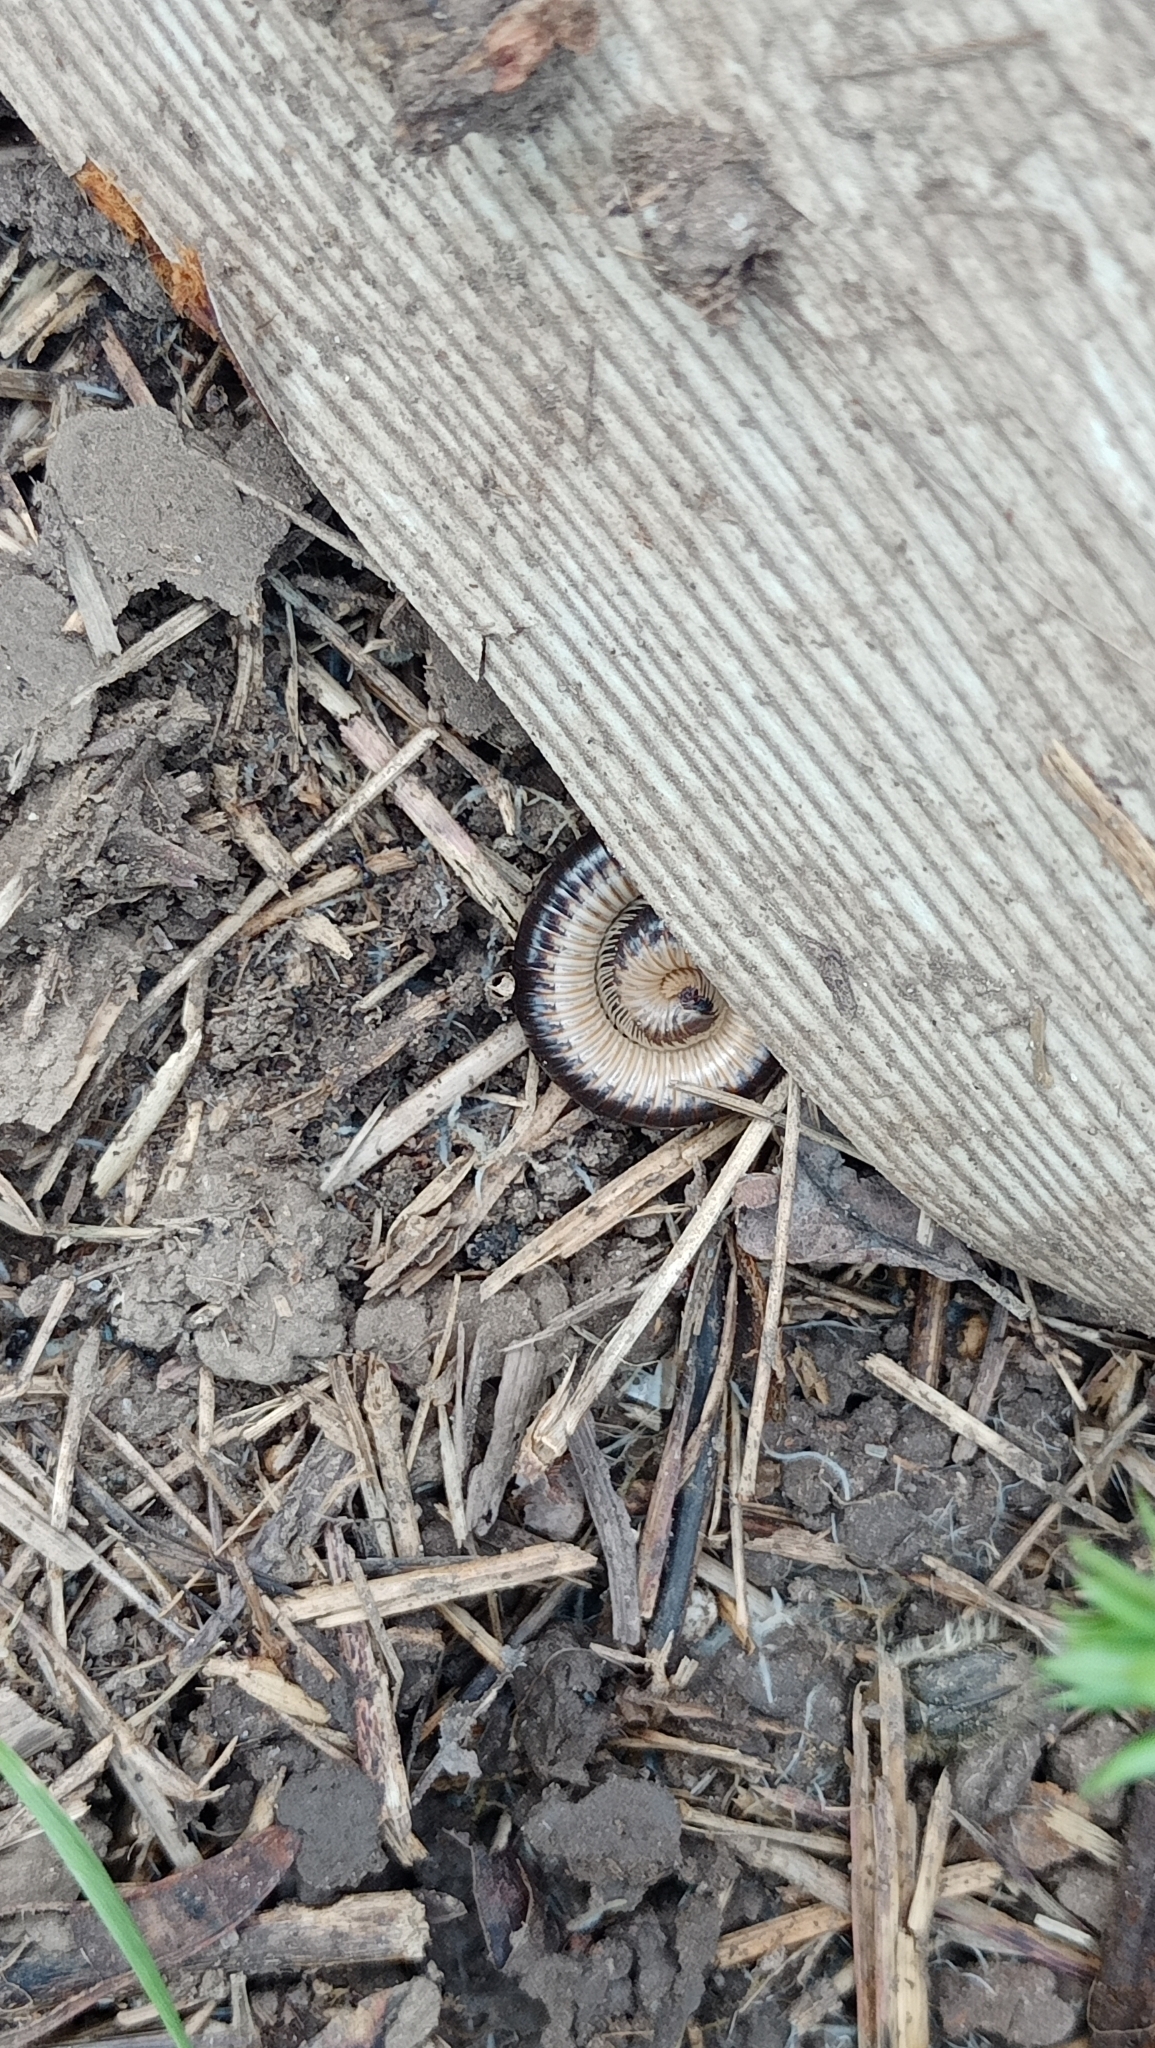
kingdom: Animalia
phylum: Arthropoda
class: Diplopoda
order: Julida
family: Julidae
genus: Pachyiulus
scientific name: Pachyiulus flavipes
